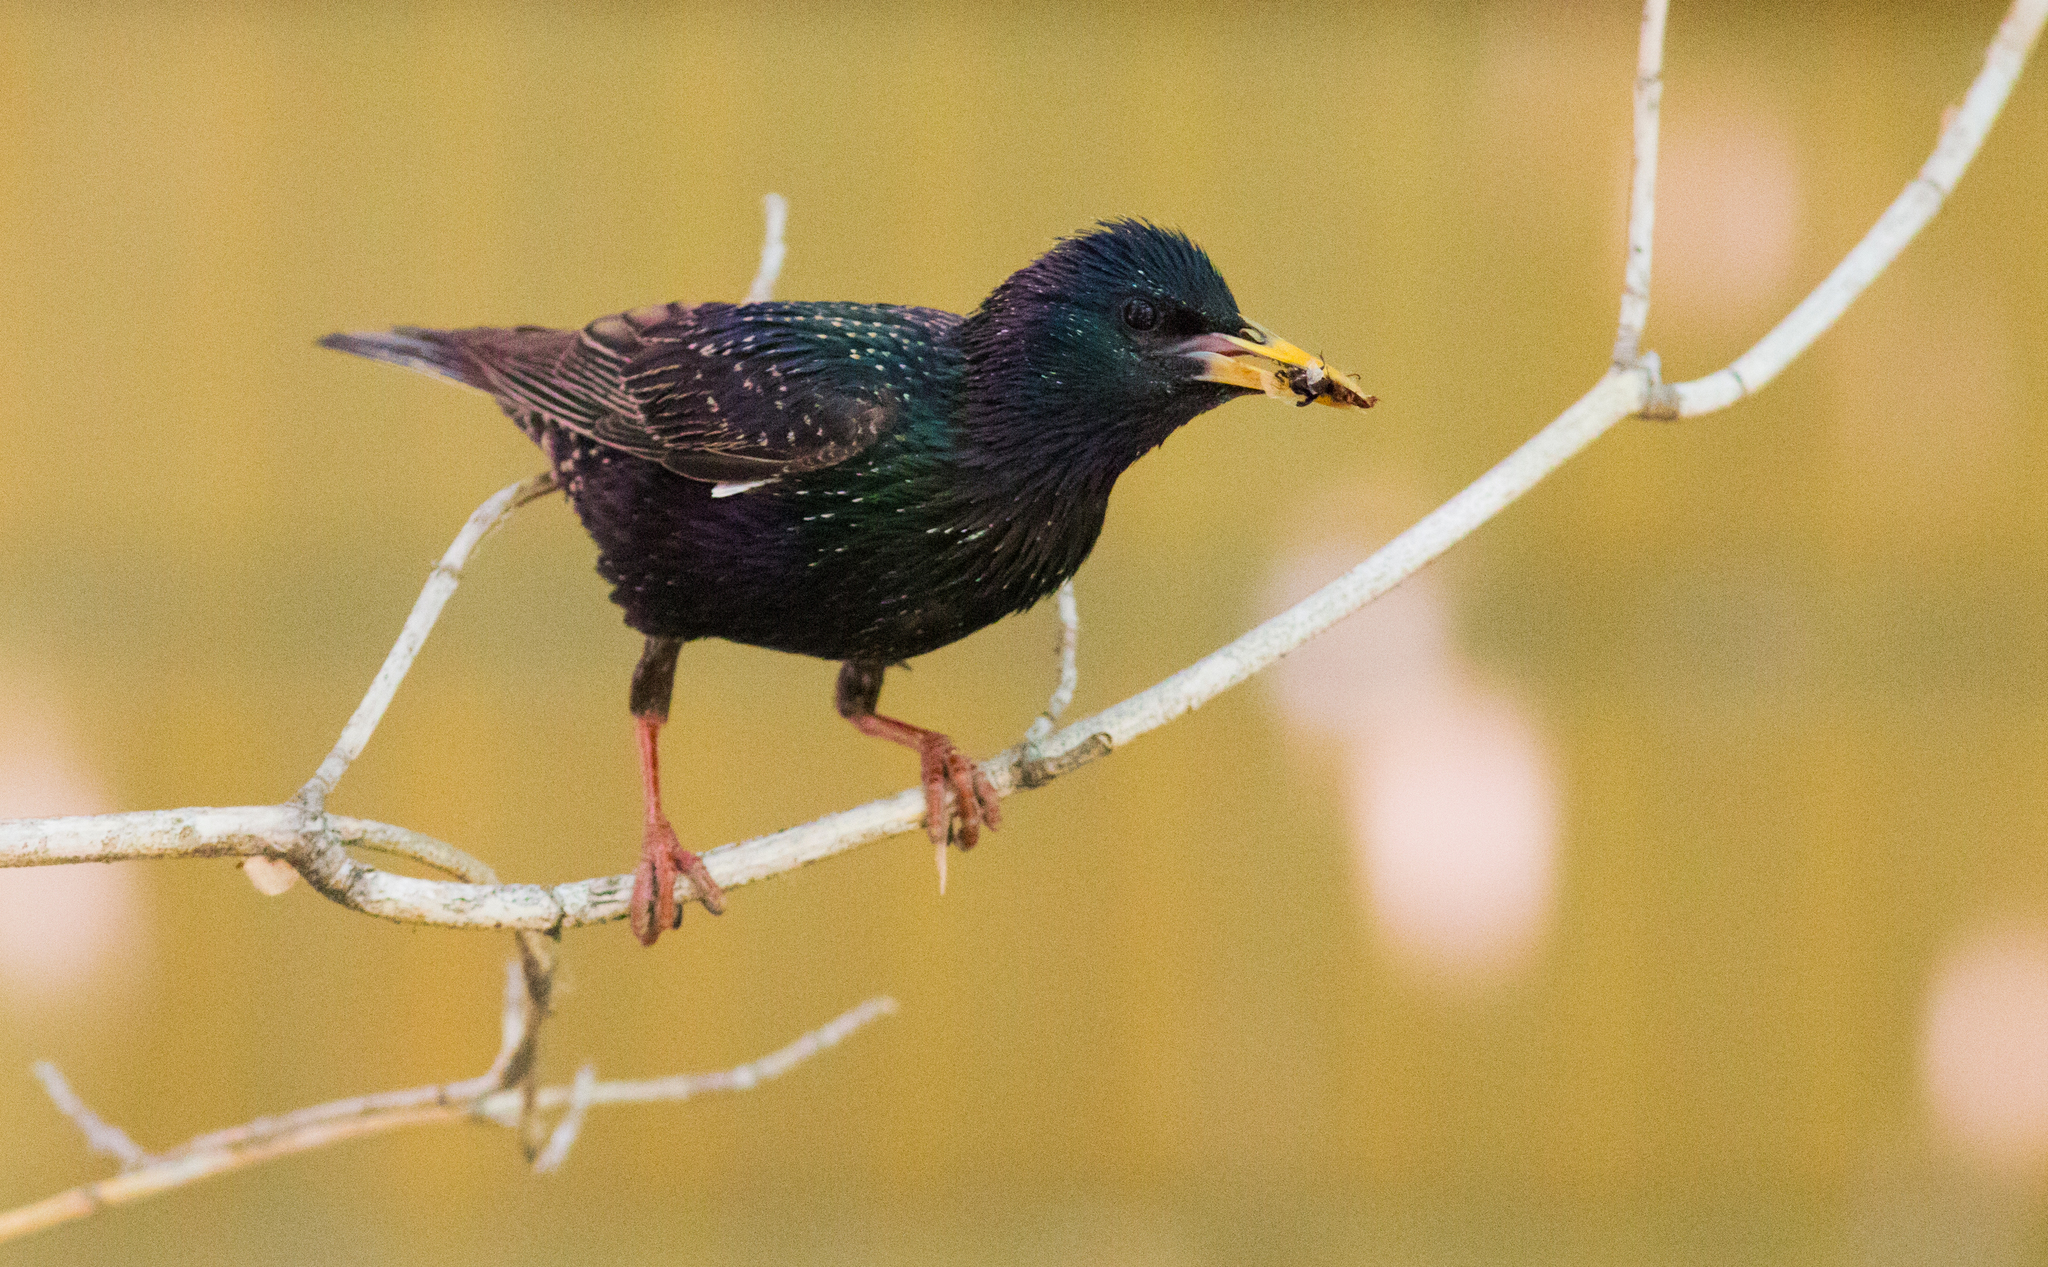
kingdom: Animalia
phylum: Chordata
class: Aves
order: Passeriformes
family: Sturnidae
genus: Sturnus
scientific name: Sturnus vulgaris
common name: Common starling
